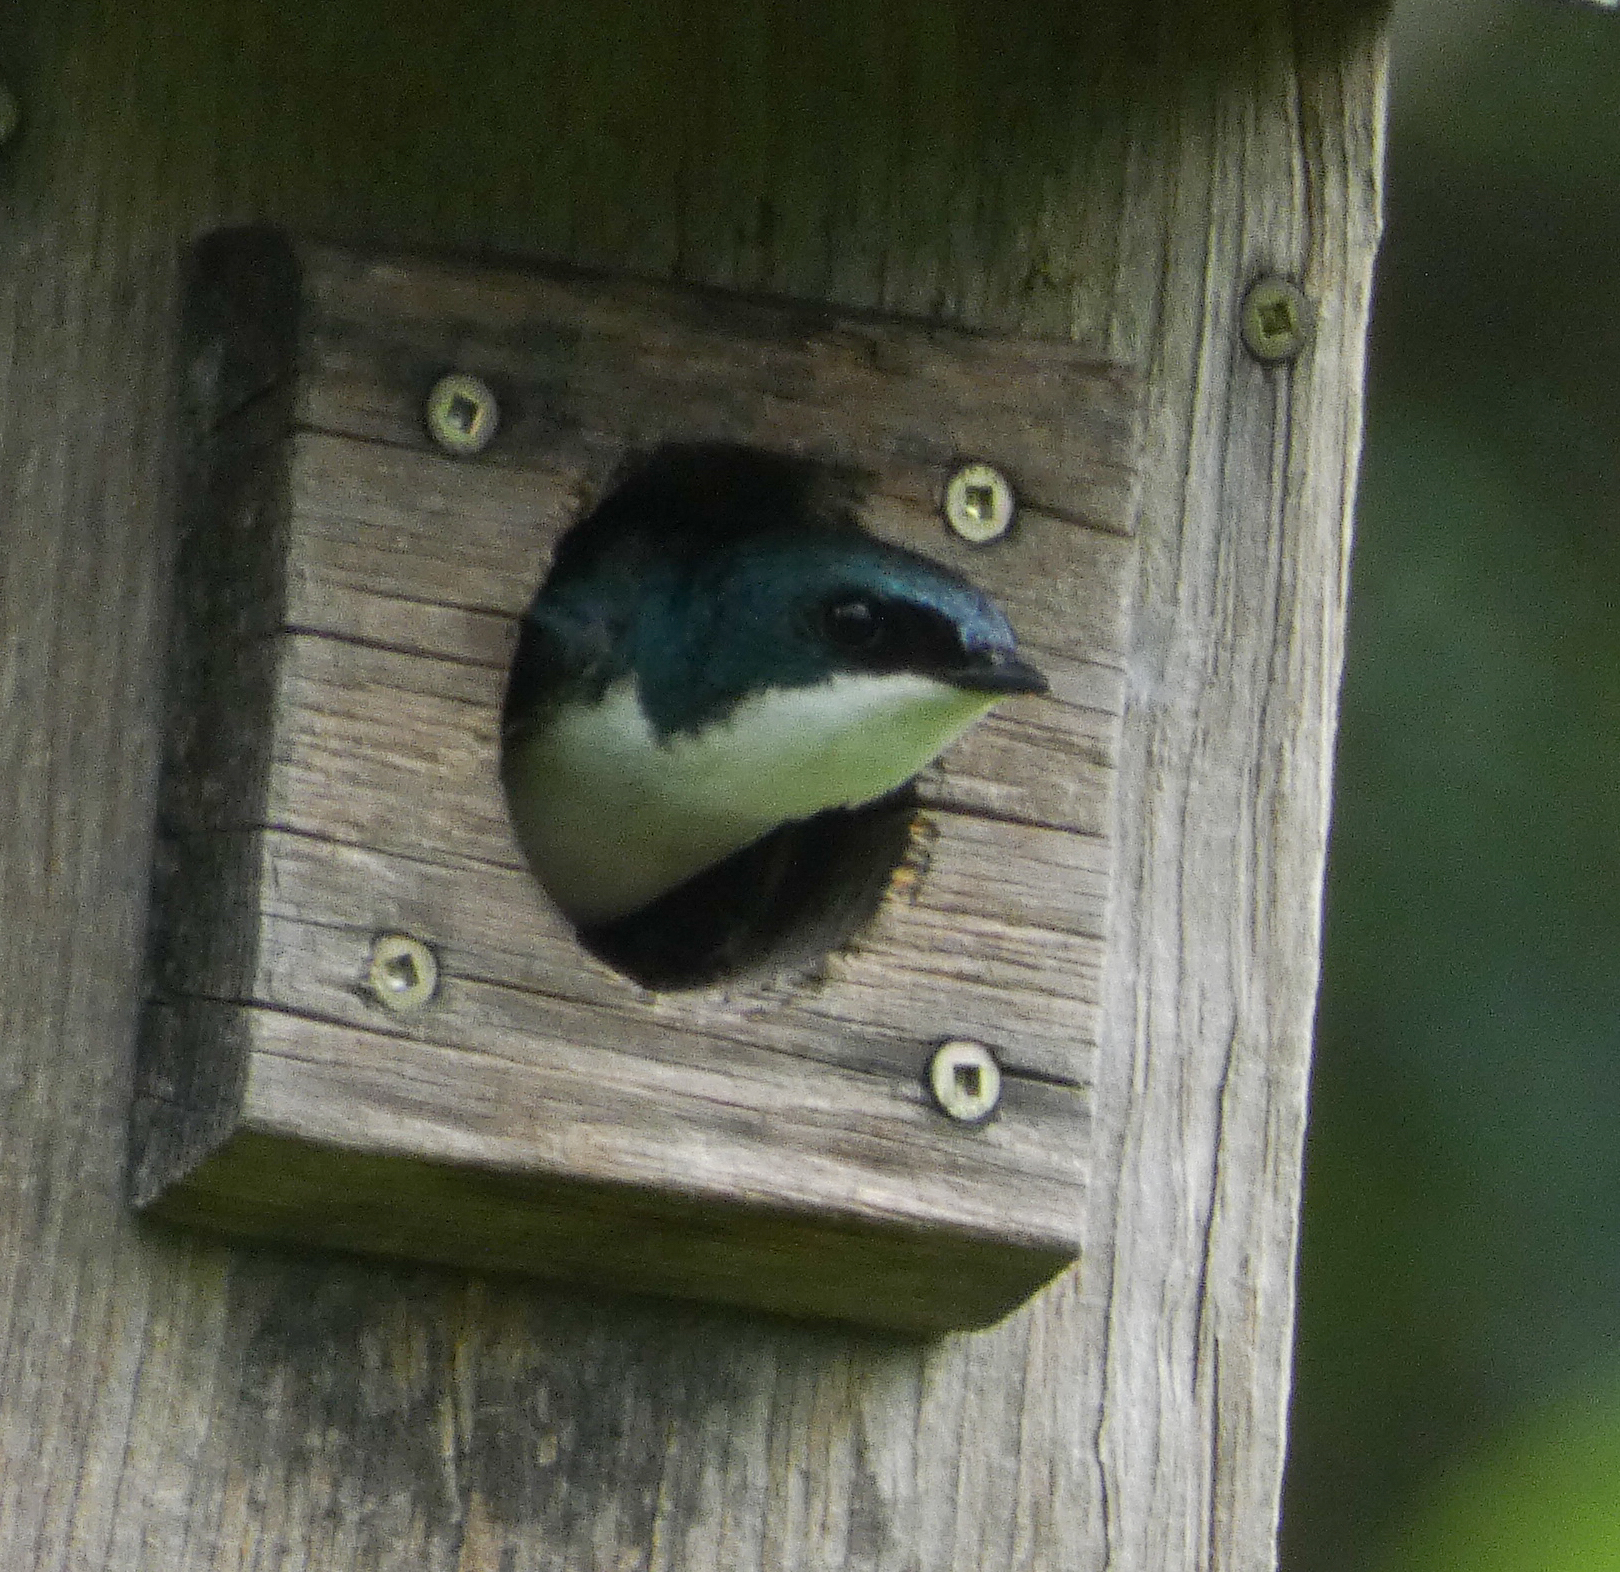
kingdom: Animalia
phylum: Chordata
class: Aves
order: Passeriformes
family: Hirundinidae
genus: Tachycineta
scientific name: Tachycineta bicolor
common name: Tree swallow
